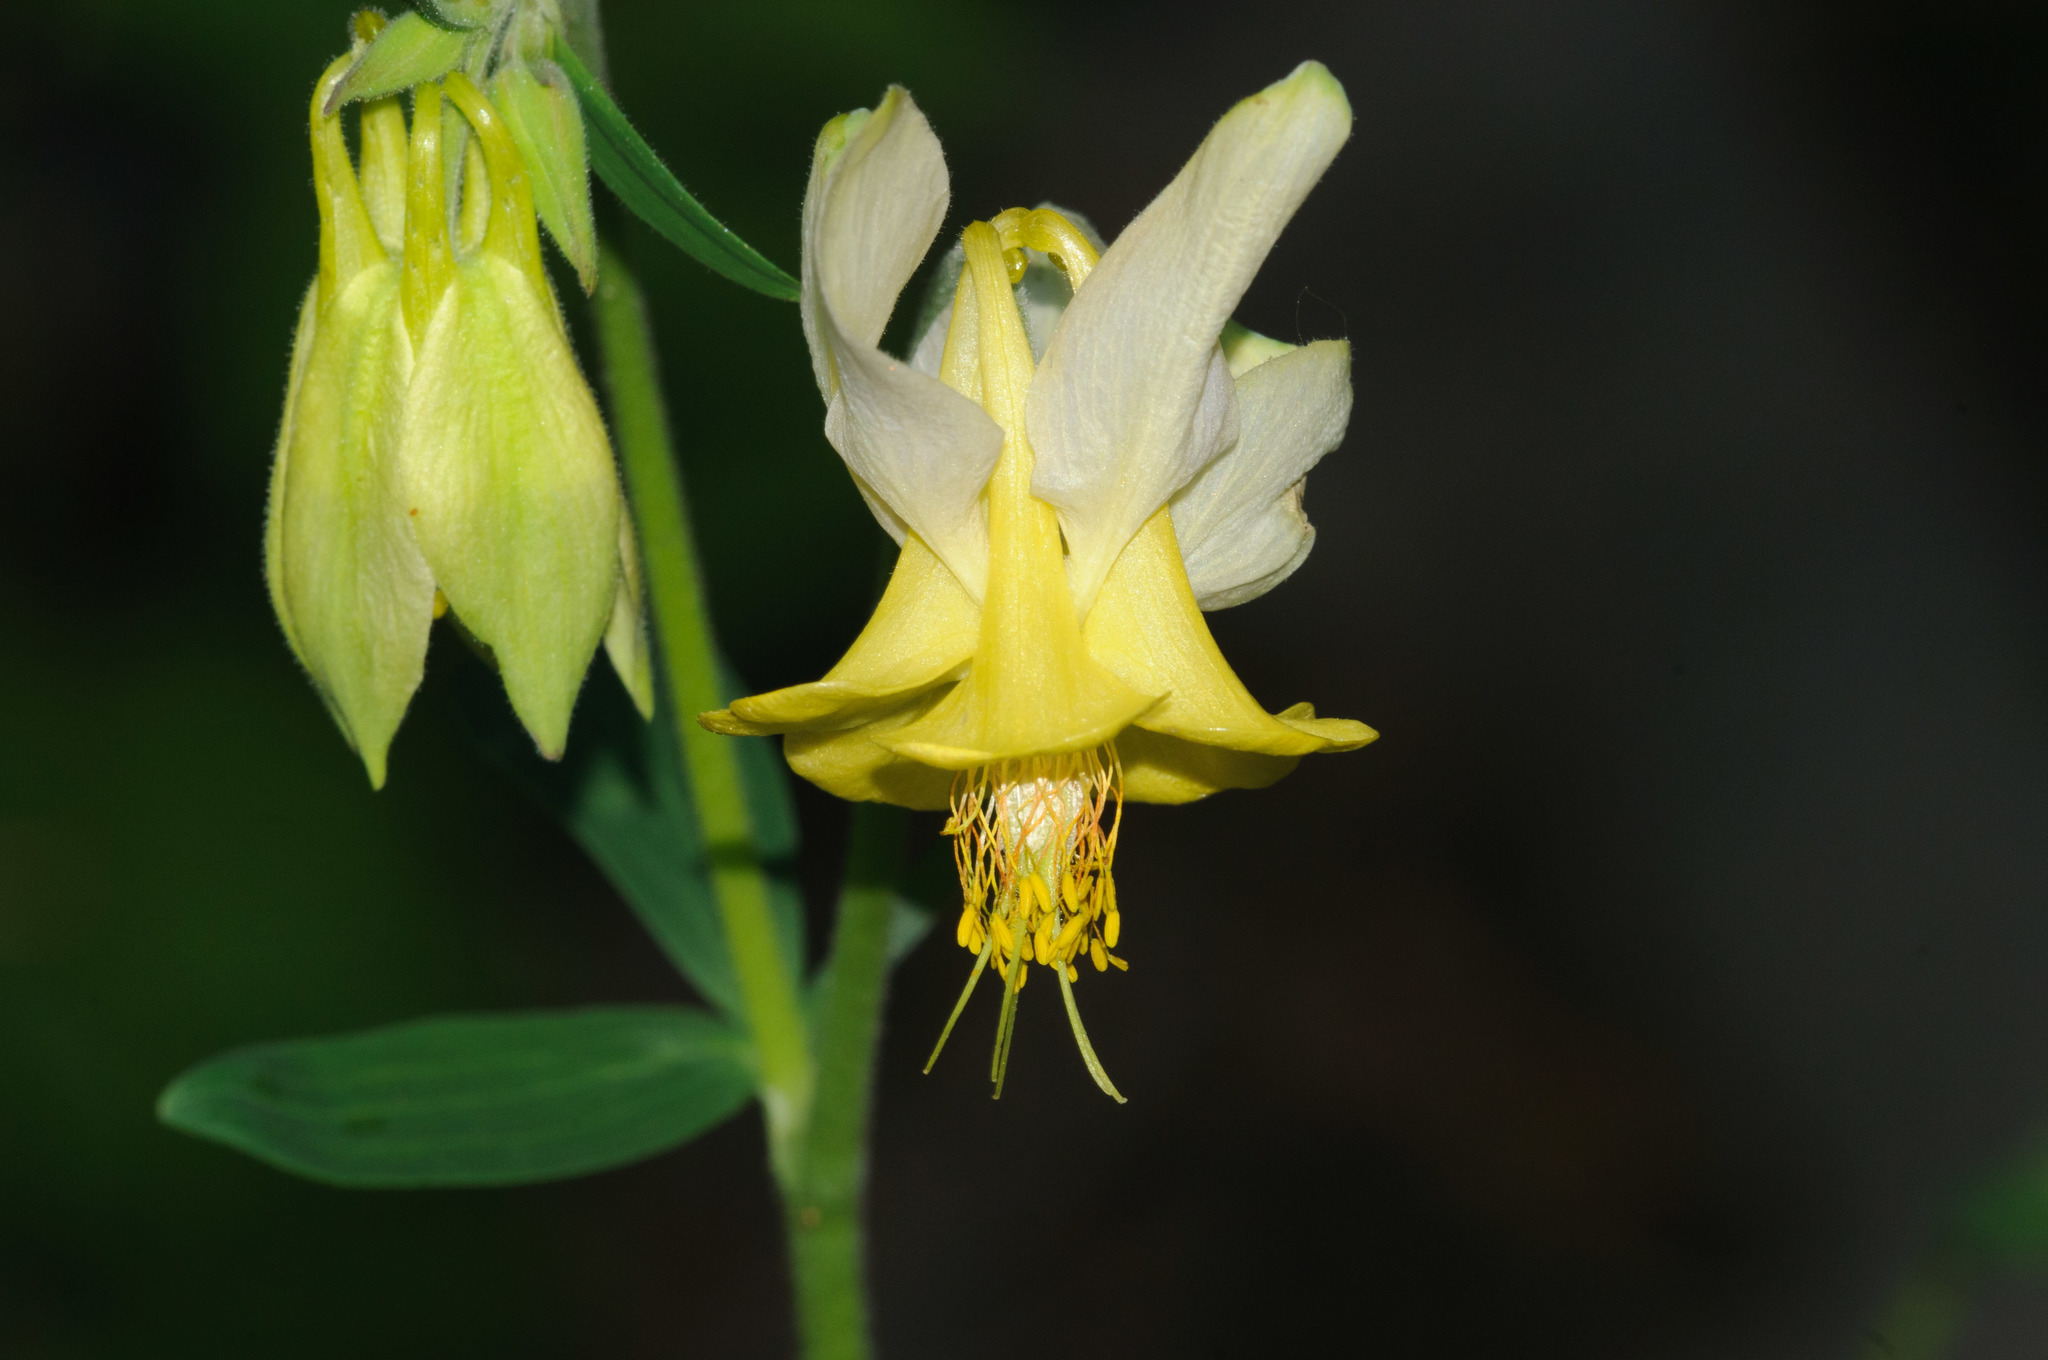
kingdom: Plantae
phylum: Tracheophyta
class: Magnoliopsida
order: Ranunculales
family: Ranunculaceae
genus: Aquilegia
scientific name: Aquilegia flavescens
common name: Yellow columbine
